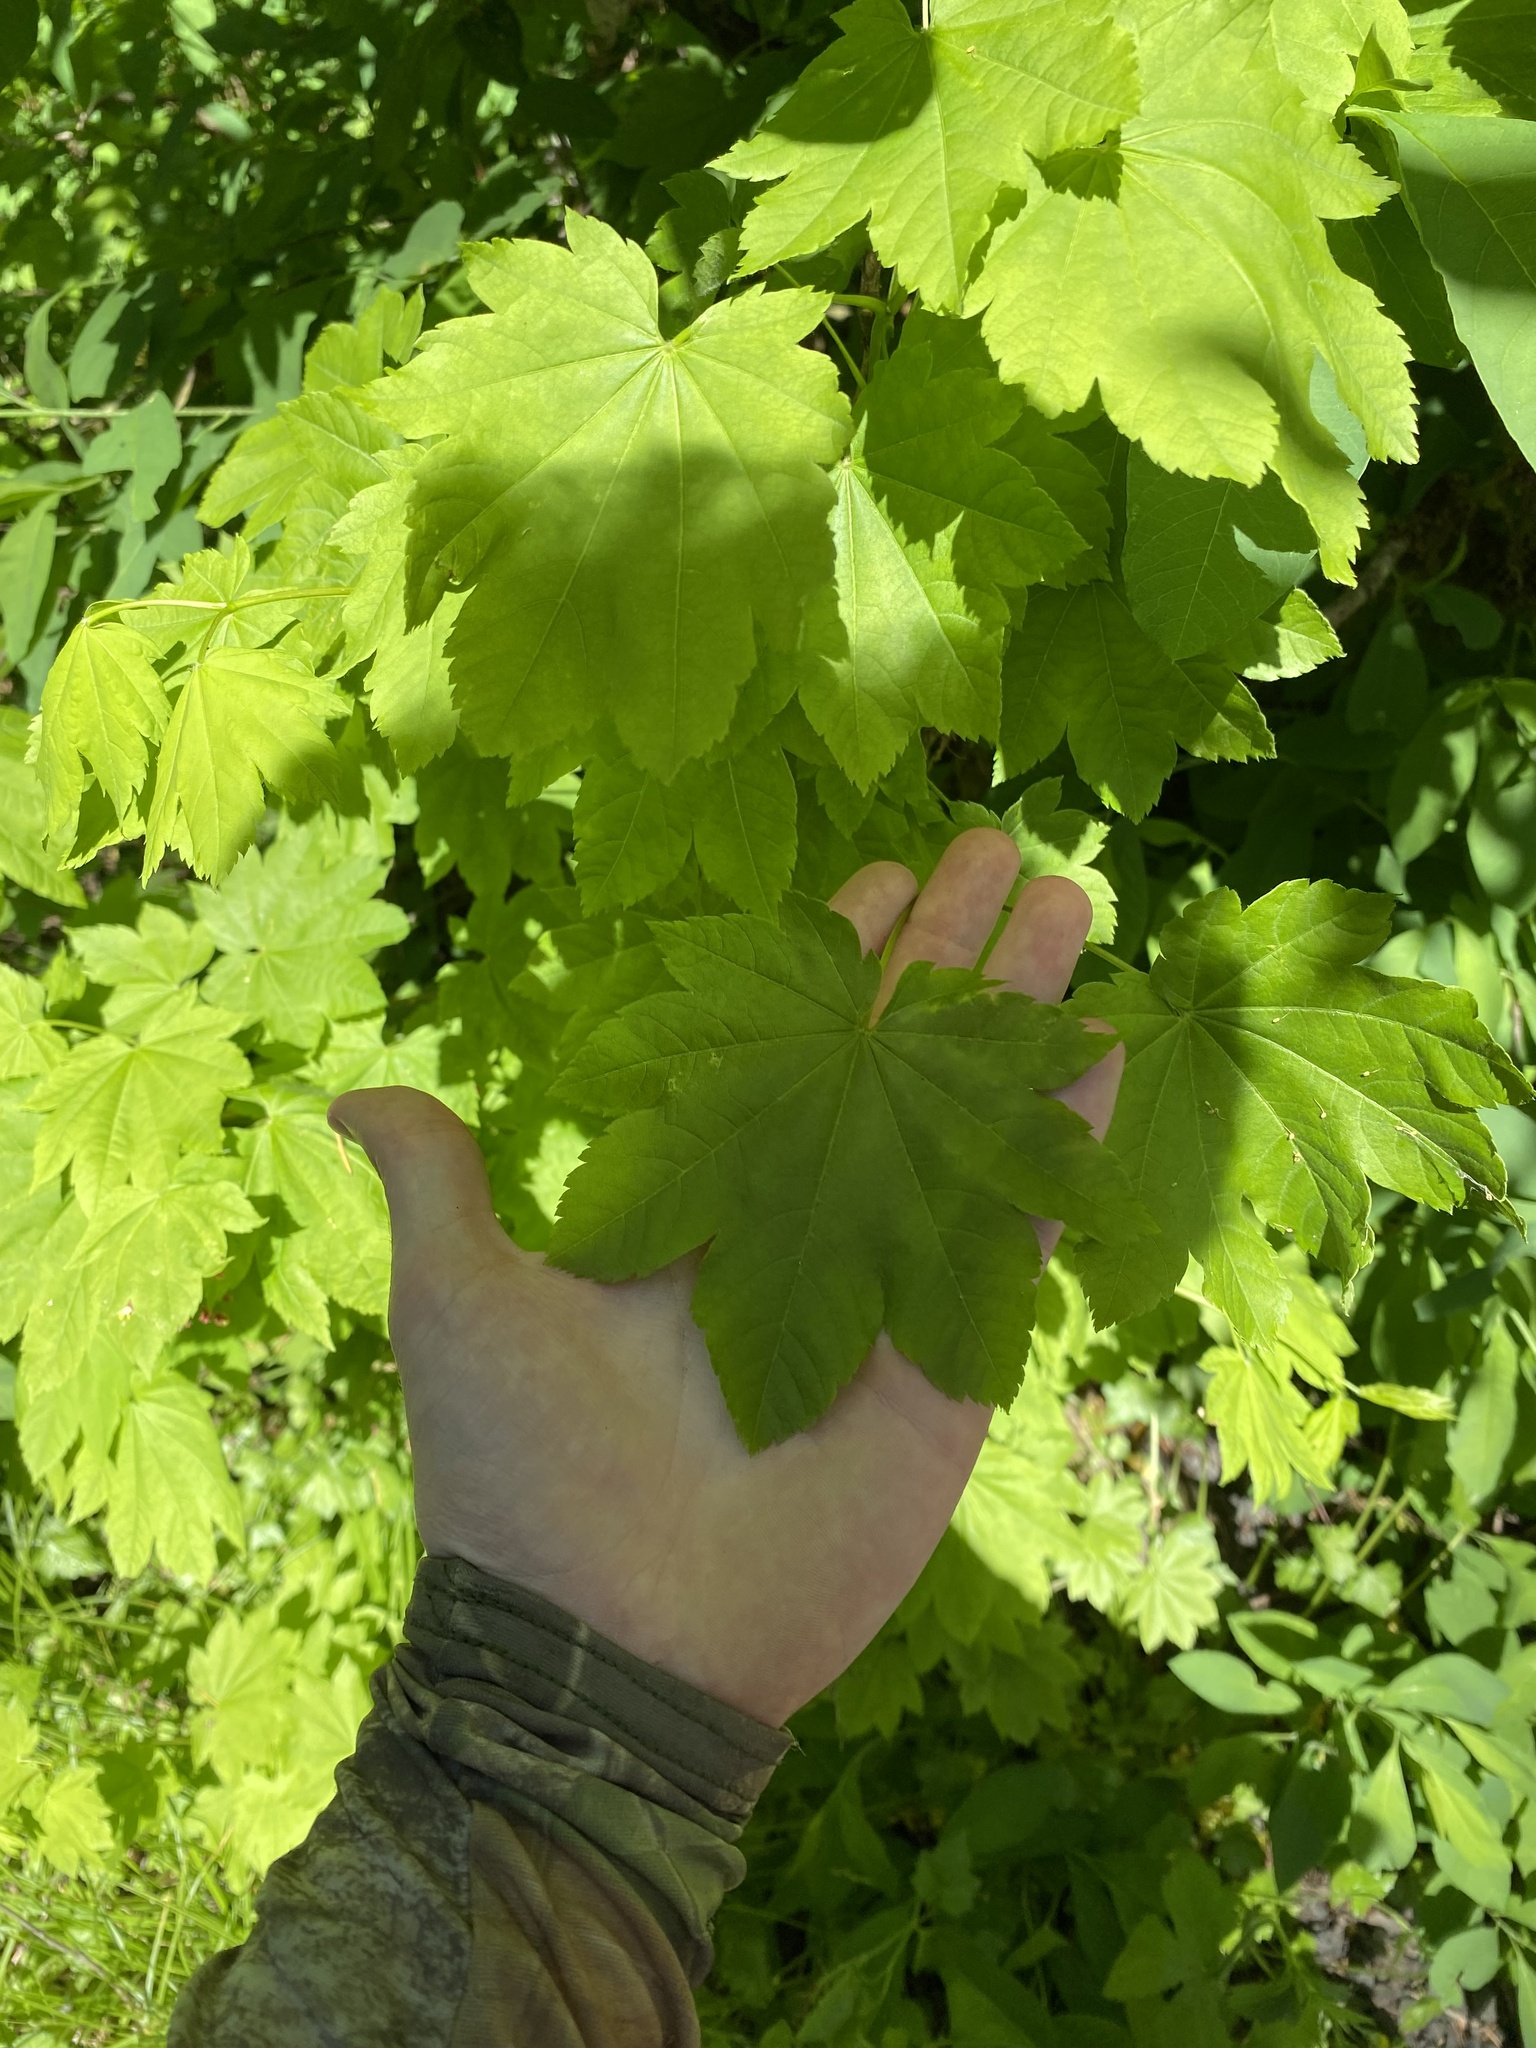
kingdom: Plantae
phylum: Tracheophyta
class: Magnoliopsida
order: Sapindales
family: Sapindaceae
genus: Acer
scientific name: Acer circinatum
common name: Vine maple
